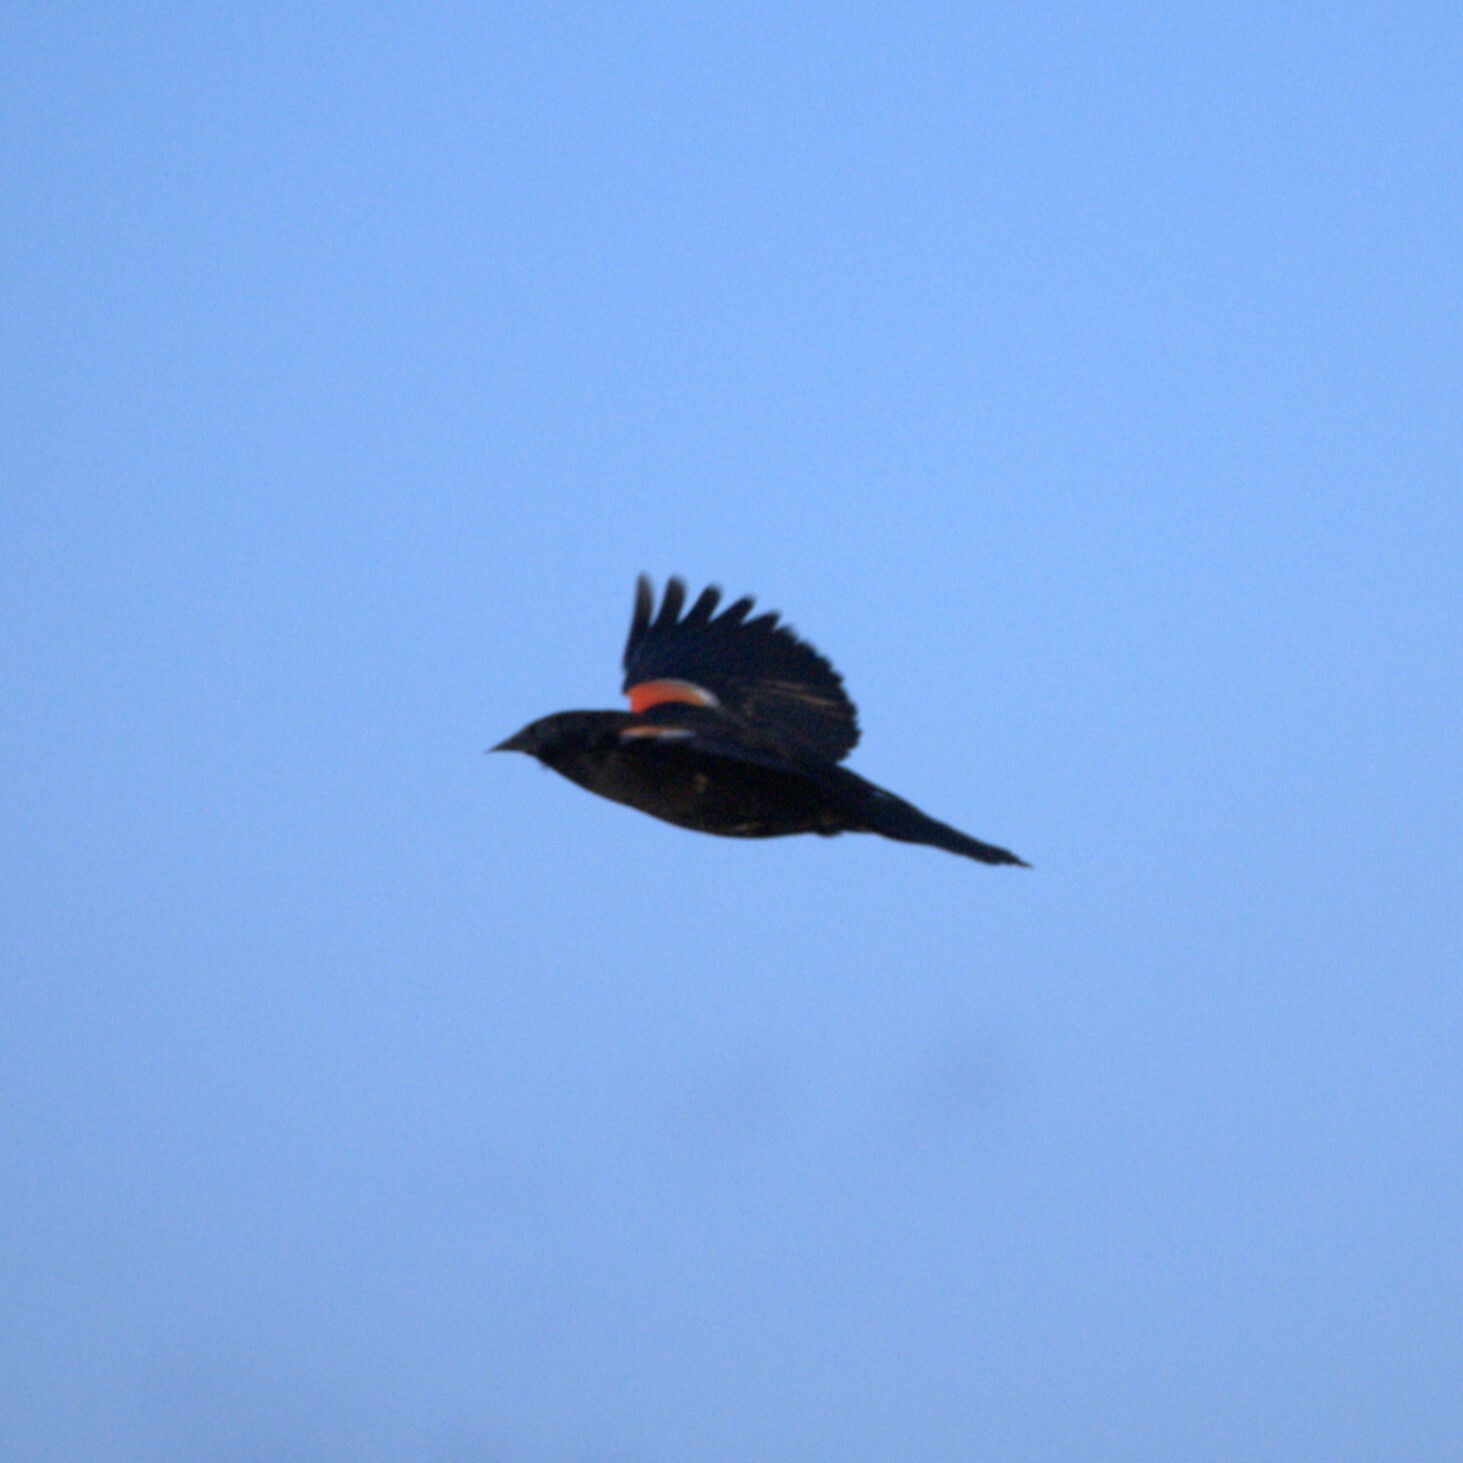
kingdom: Animalia
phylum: Chordata
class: Aves
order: Passeriformes
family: Icteridae
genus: Agelaius
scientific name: Agelaius phoeniceus
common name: Red-winged blackbird
